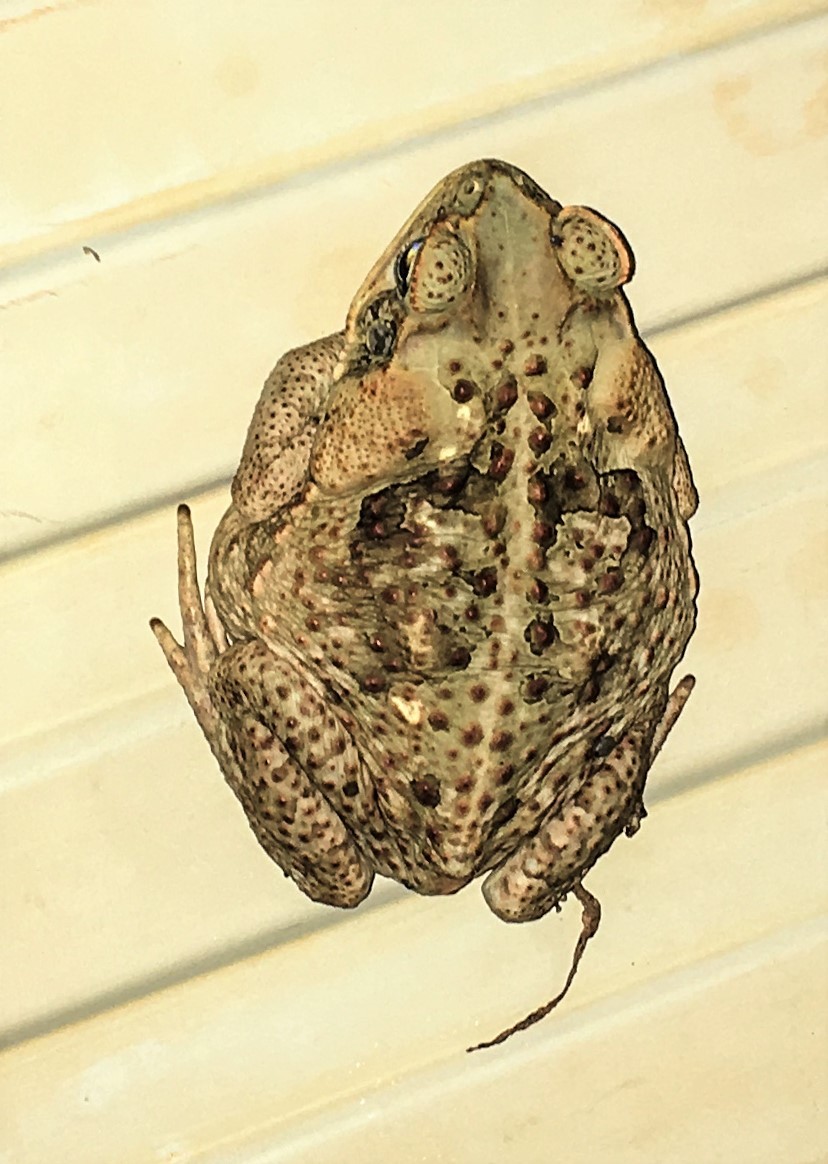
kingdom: Animalia
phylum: Chordata
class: Amphibia
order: Anura
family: Bufonidae
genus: Rhinella
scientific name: Rhinella marina
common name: Cane toad
